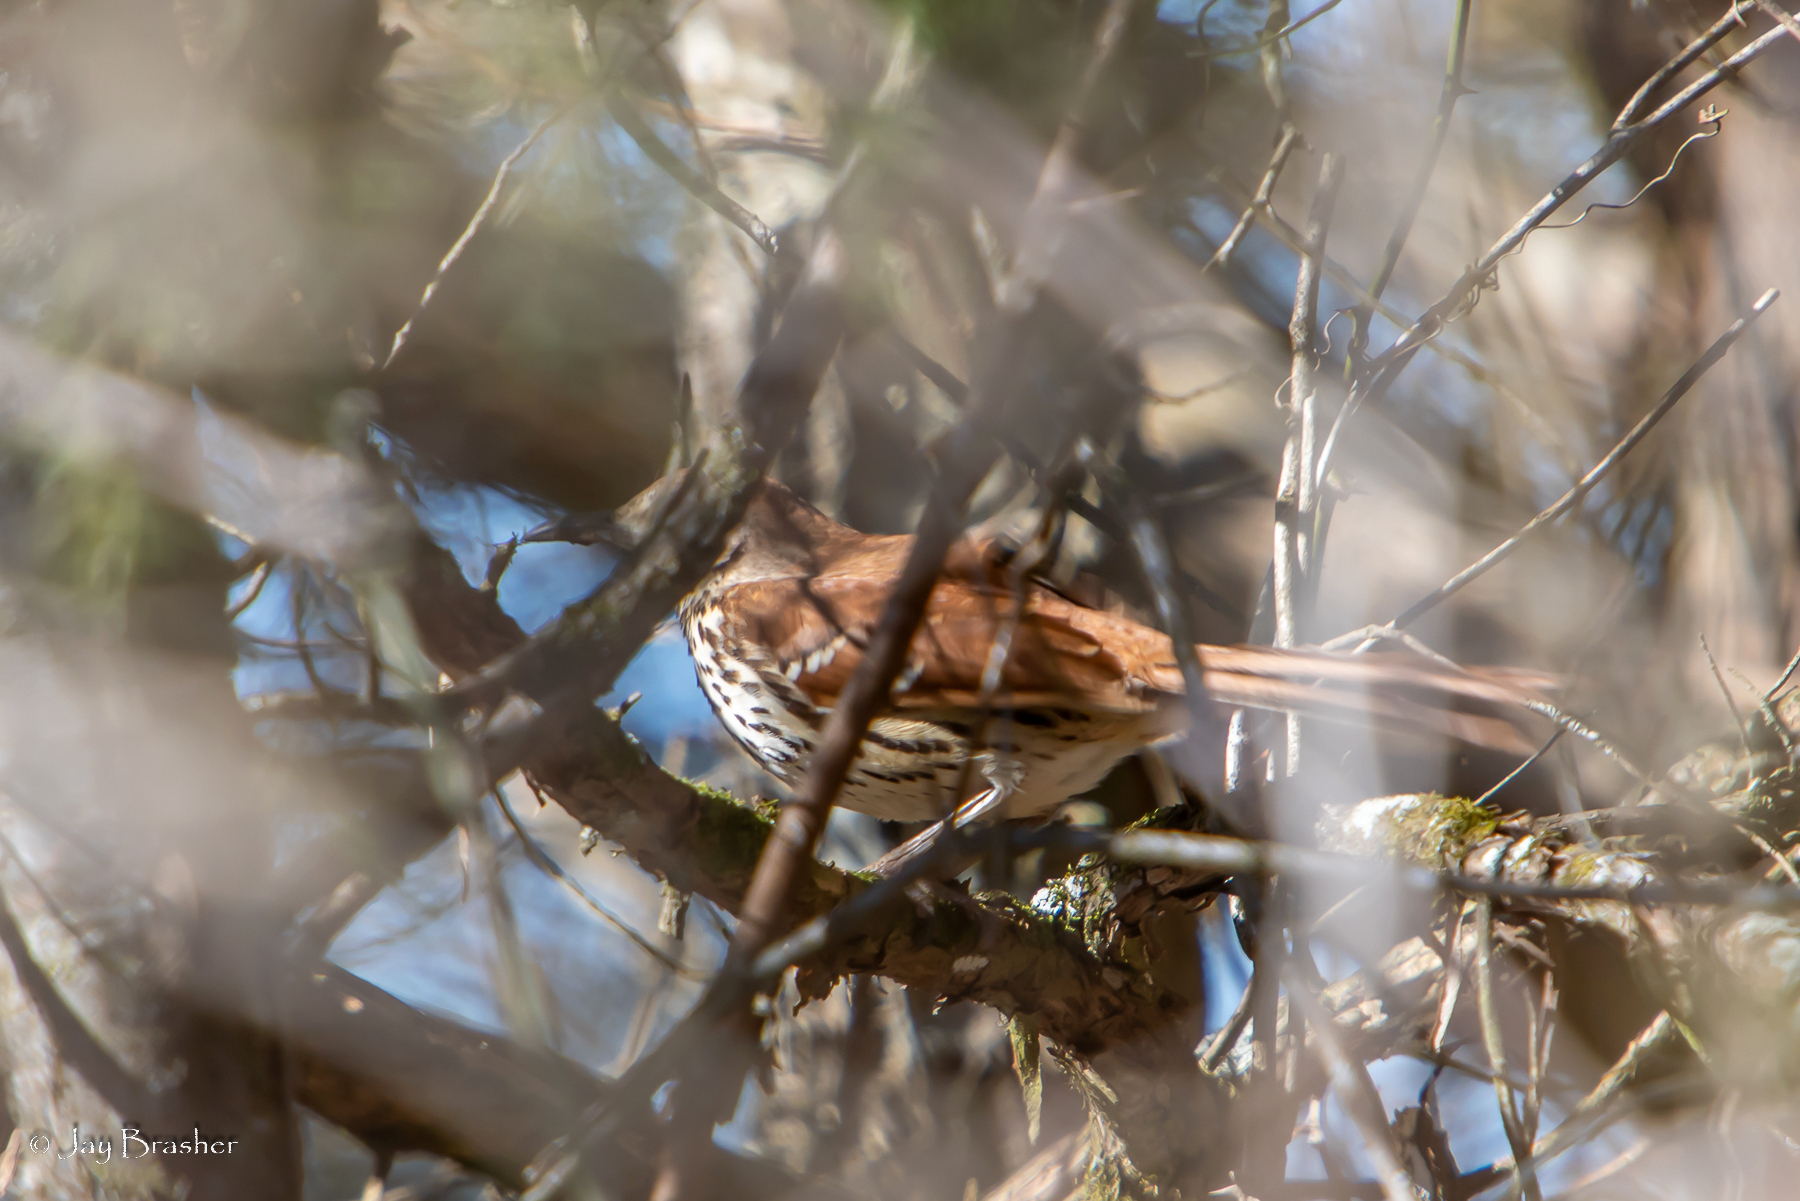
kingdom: Animalia
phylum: Chordata
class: Aves
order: Passeriformes
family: Mimidae
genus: Toxostoma
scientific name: Toxostoma rufum
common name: Brown thrasher
